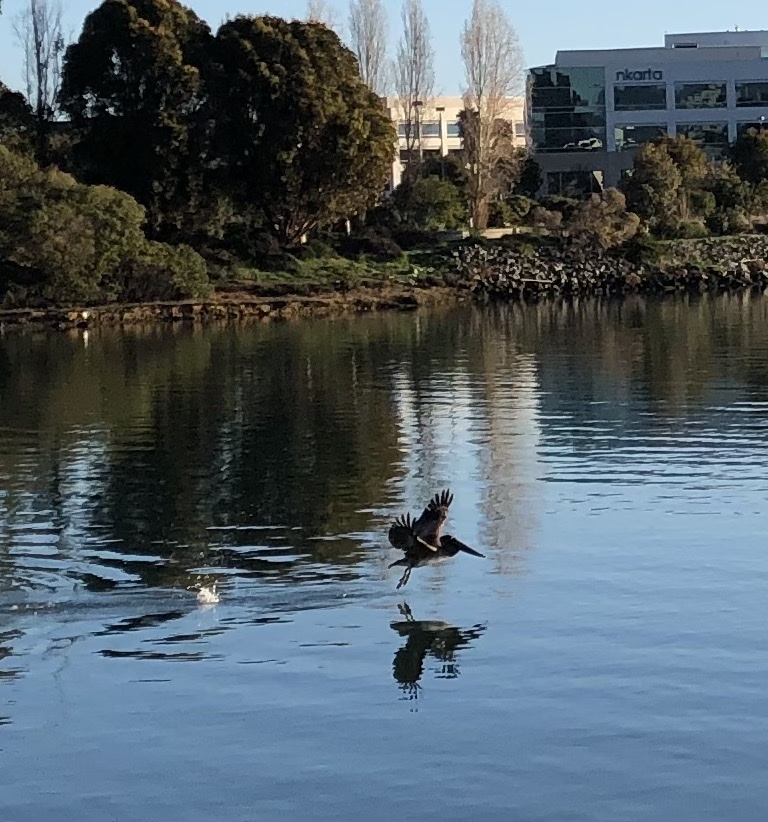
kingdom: Animalia
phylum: Chordata
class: Aves
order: Pelecaniformes
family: Pelecanidae
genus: Pelecanus
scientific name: Pelecanus occidentalis
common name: Brown pelican
